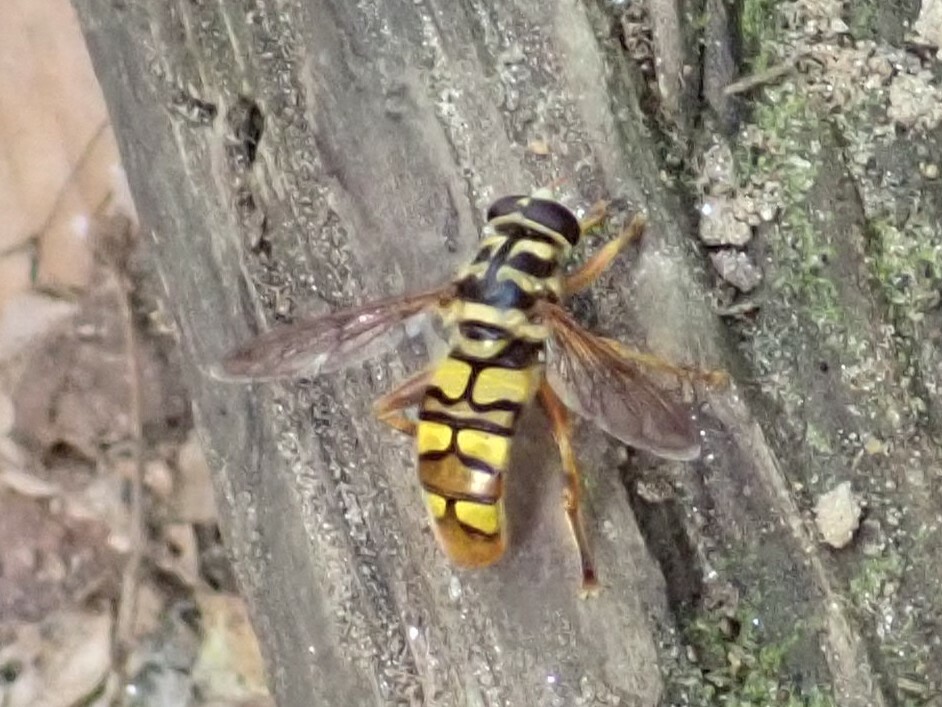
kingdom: Animalia
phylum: Arthropoda
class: Insecta
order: Diptera
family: Syrphidae
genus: Milesia
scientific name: Milesia virginiensis
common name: Virginia giant
